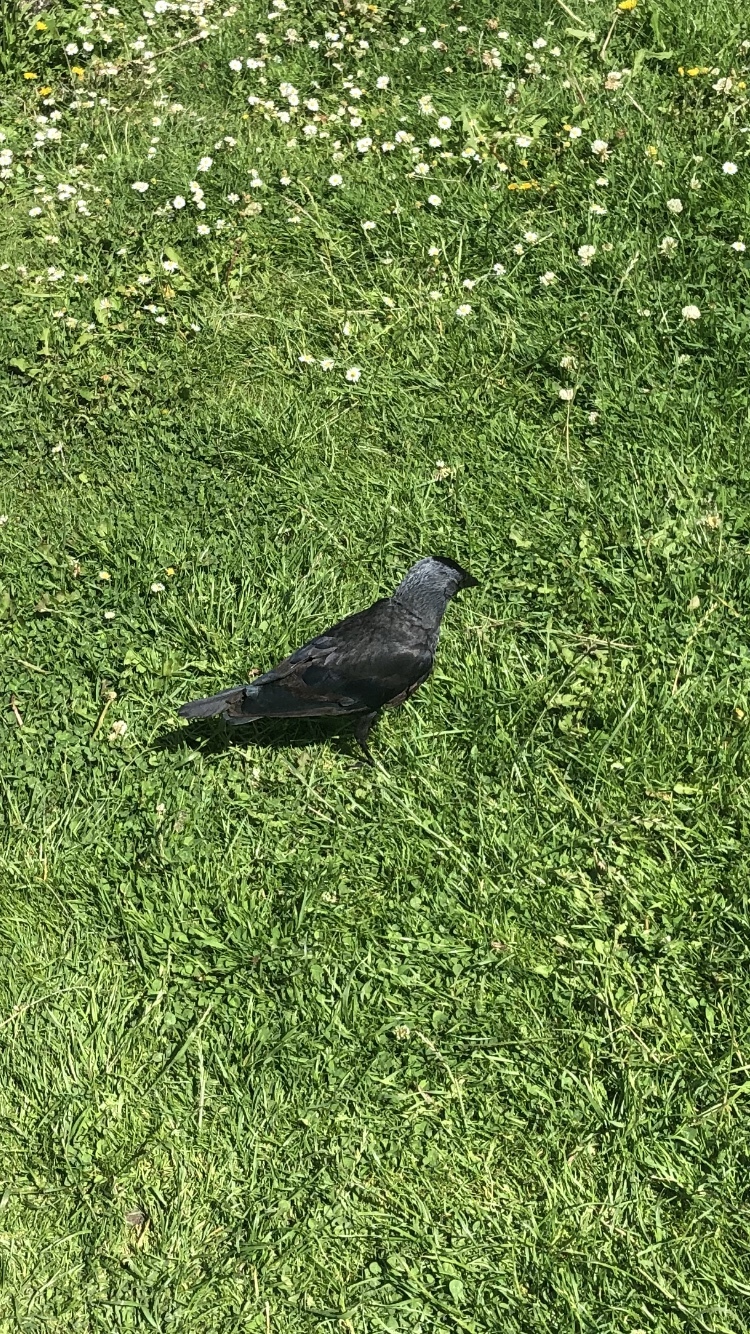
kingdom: Animalia
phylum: Chordata
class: Aves
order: Passeriformes
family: Corvidae
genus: Coloeus
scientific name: Coloeus monedula
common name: Western jackdaw
